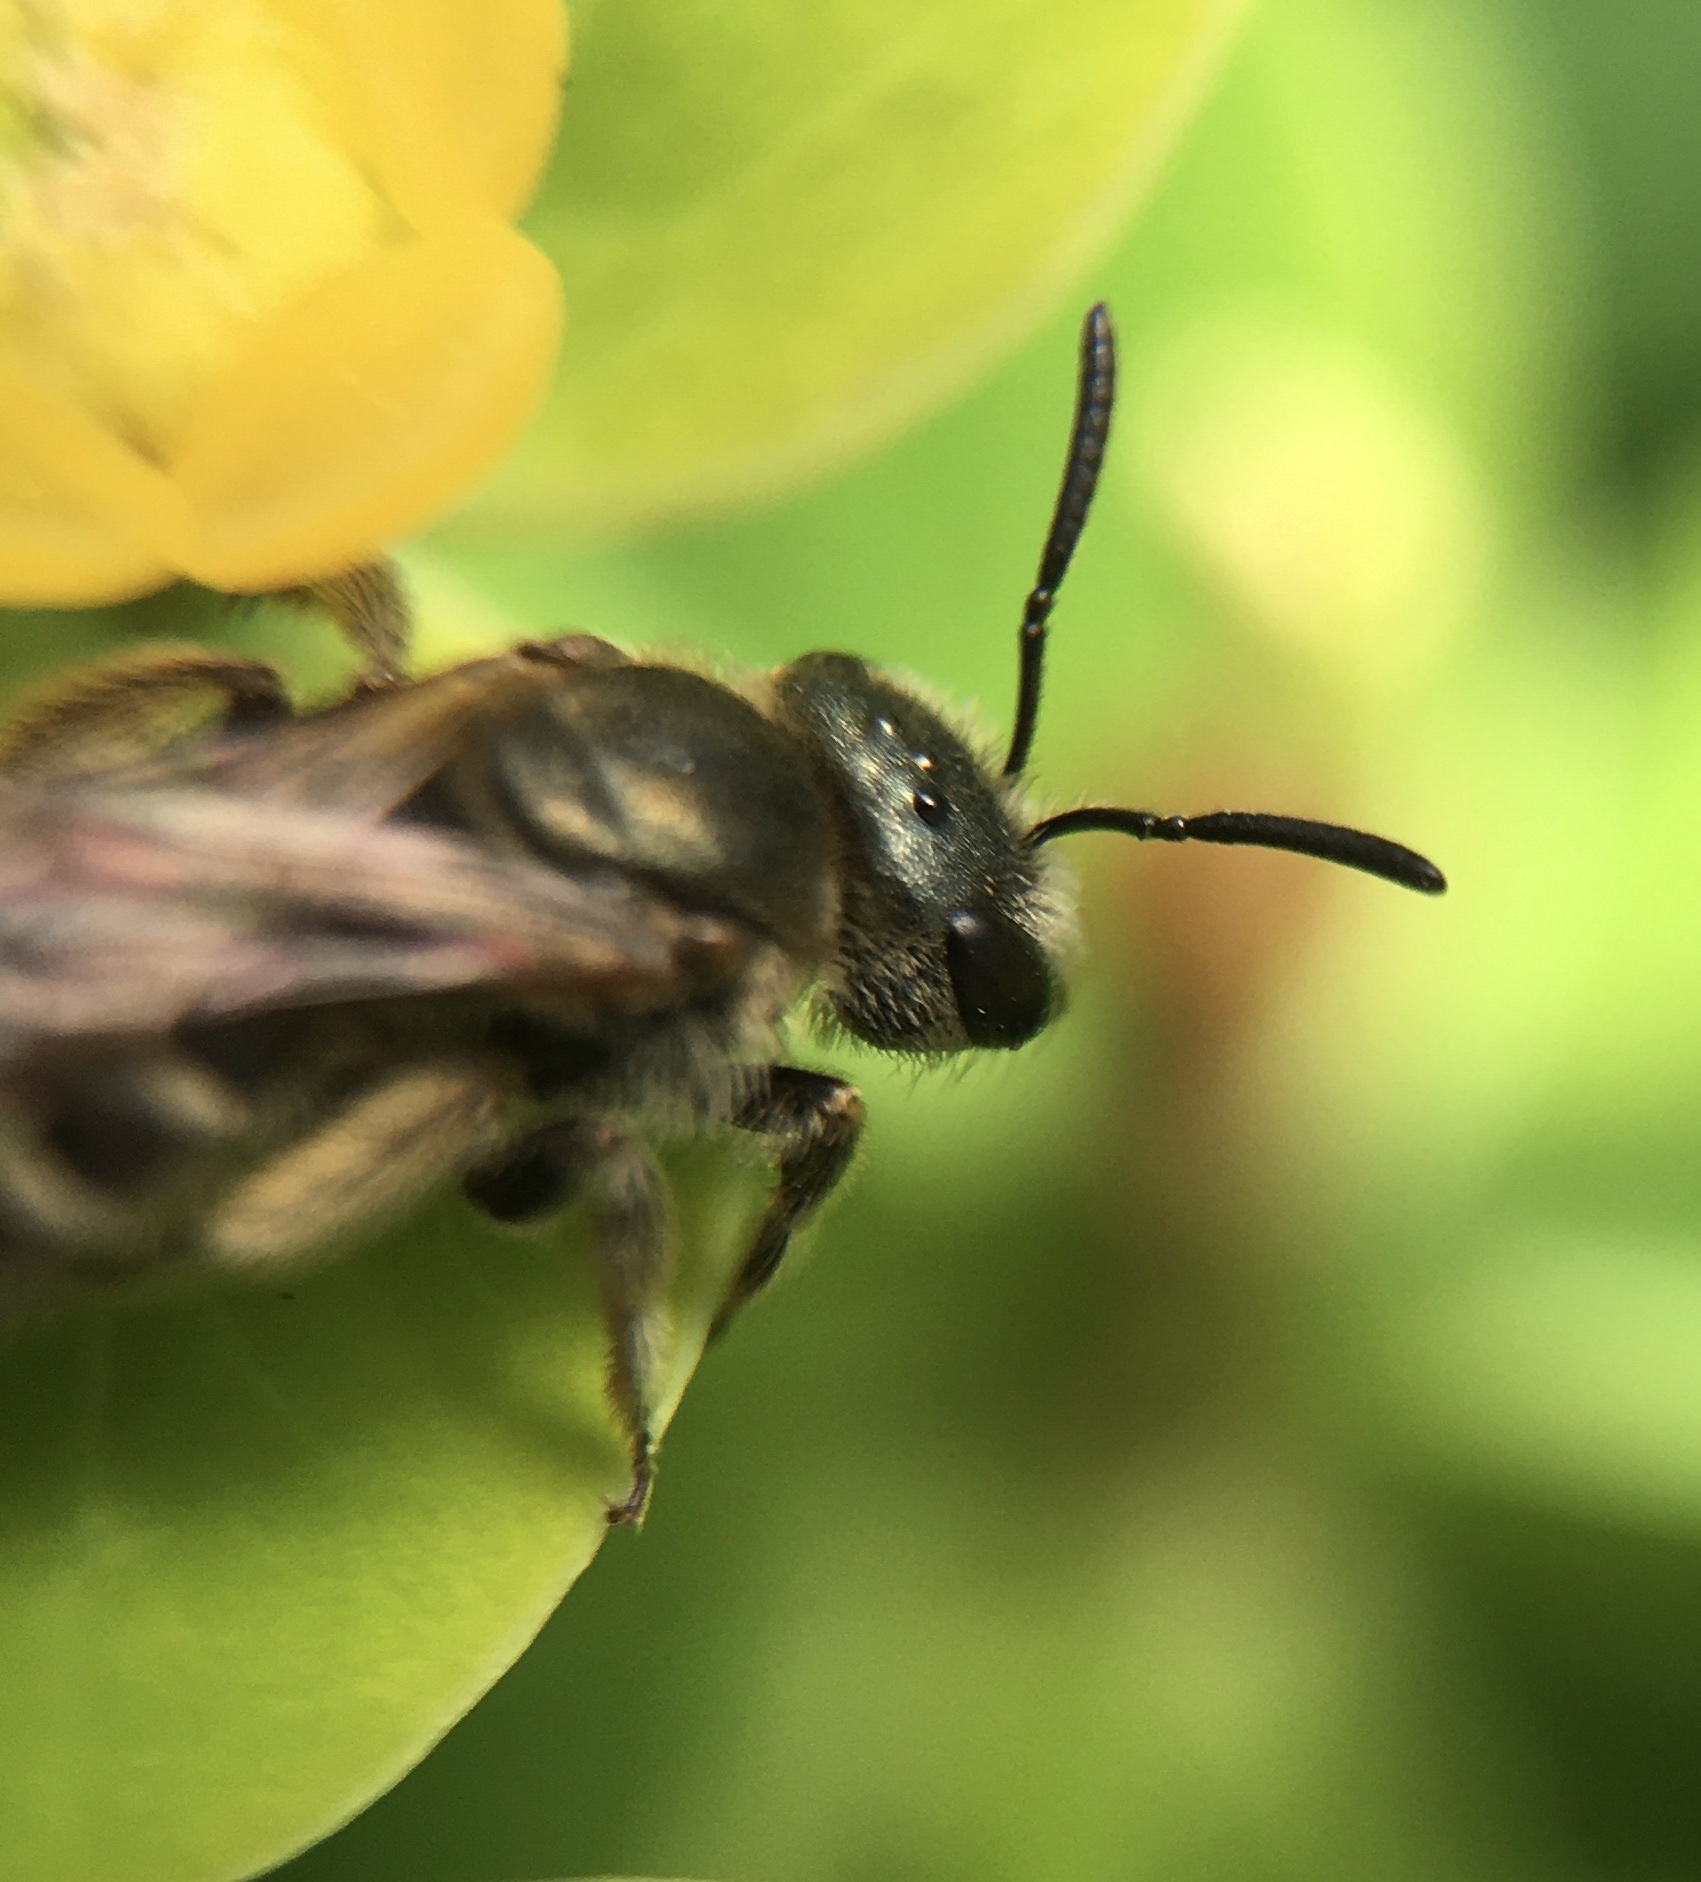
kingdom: Animalia
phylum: Arthropoda
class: Insecta
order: Hymenoptera
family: Halictidae
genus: Halictus
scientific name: Halictus tripartitus
